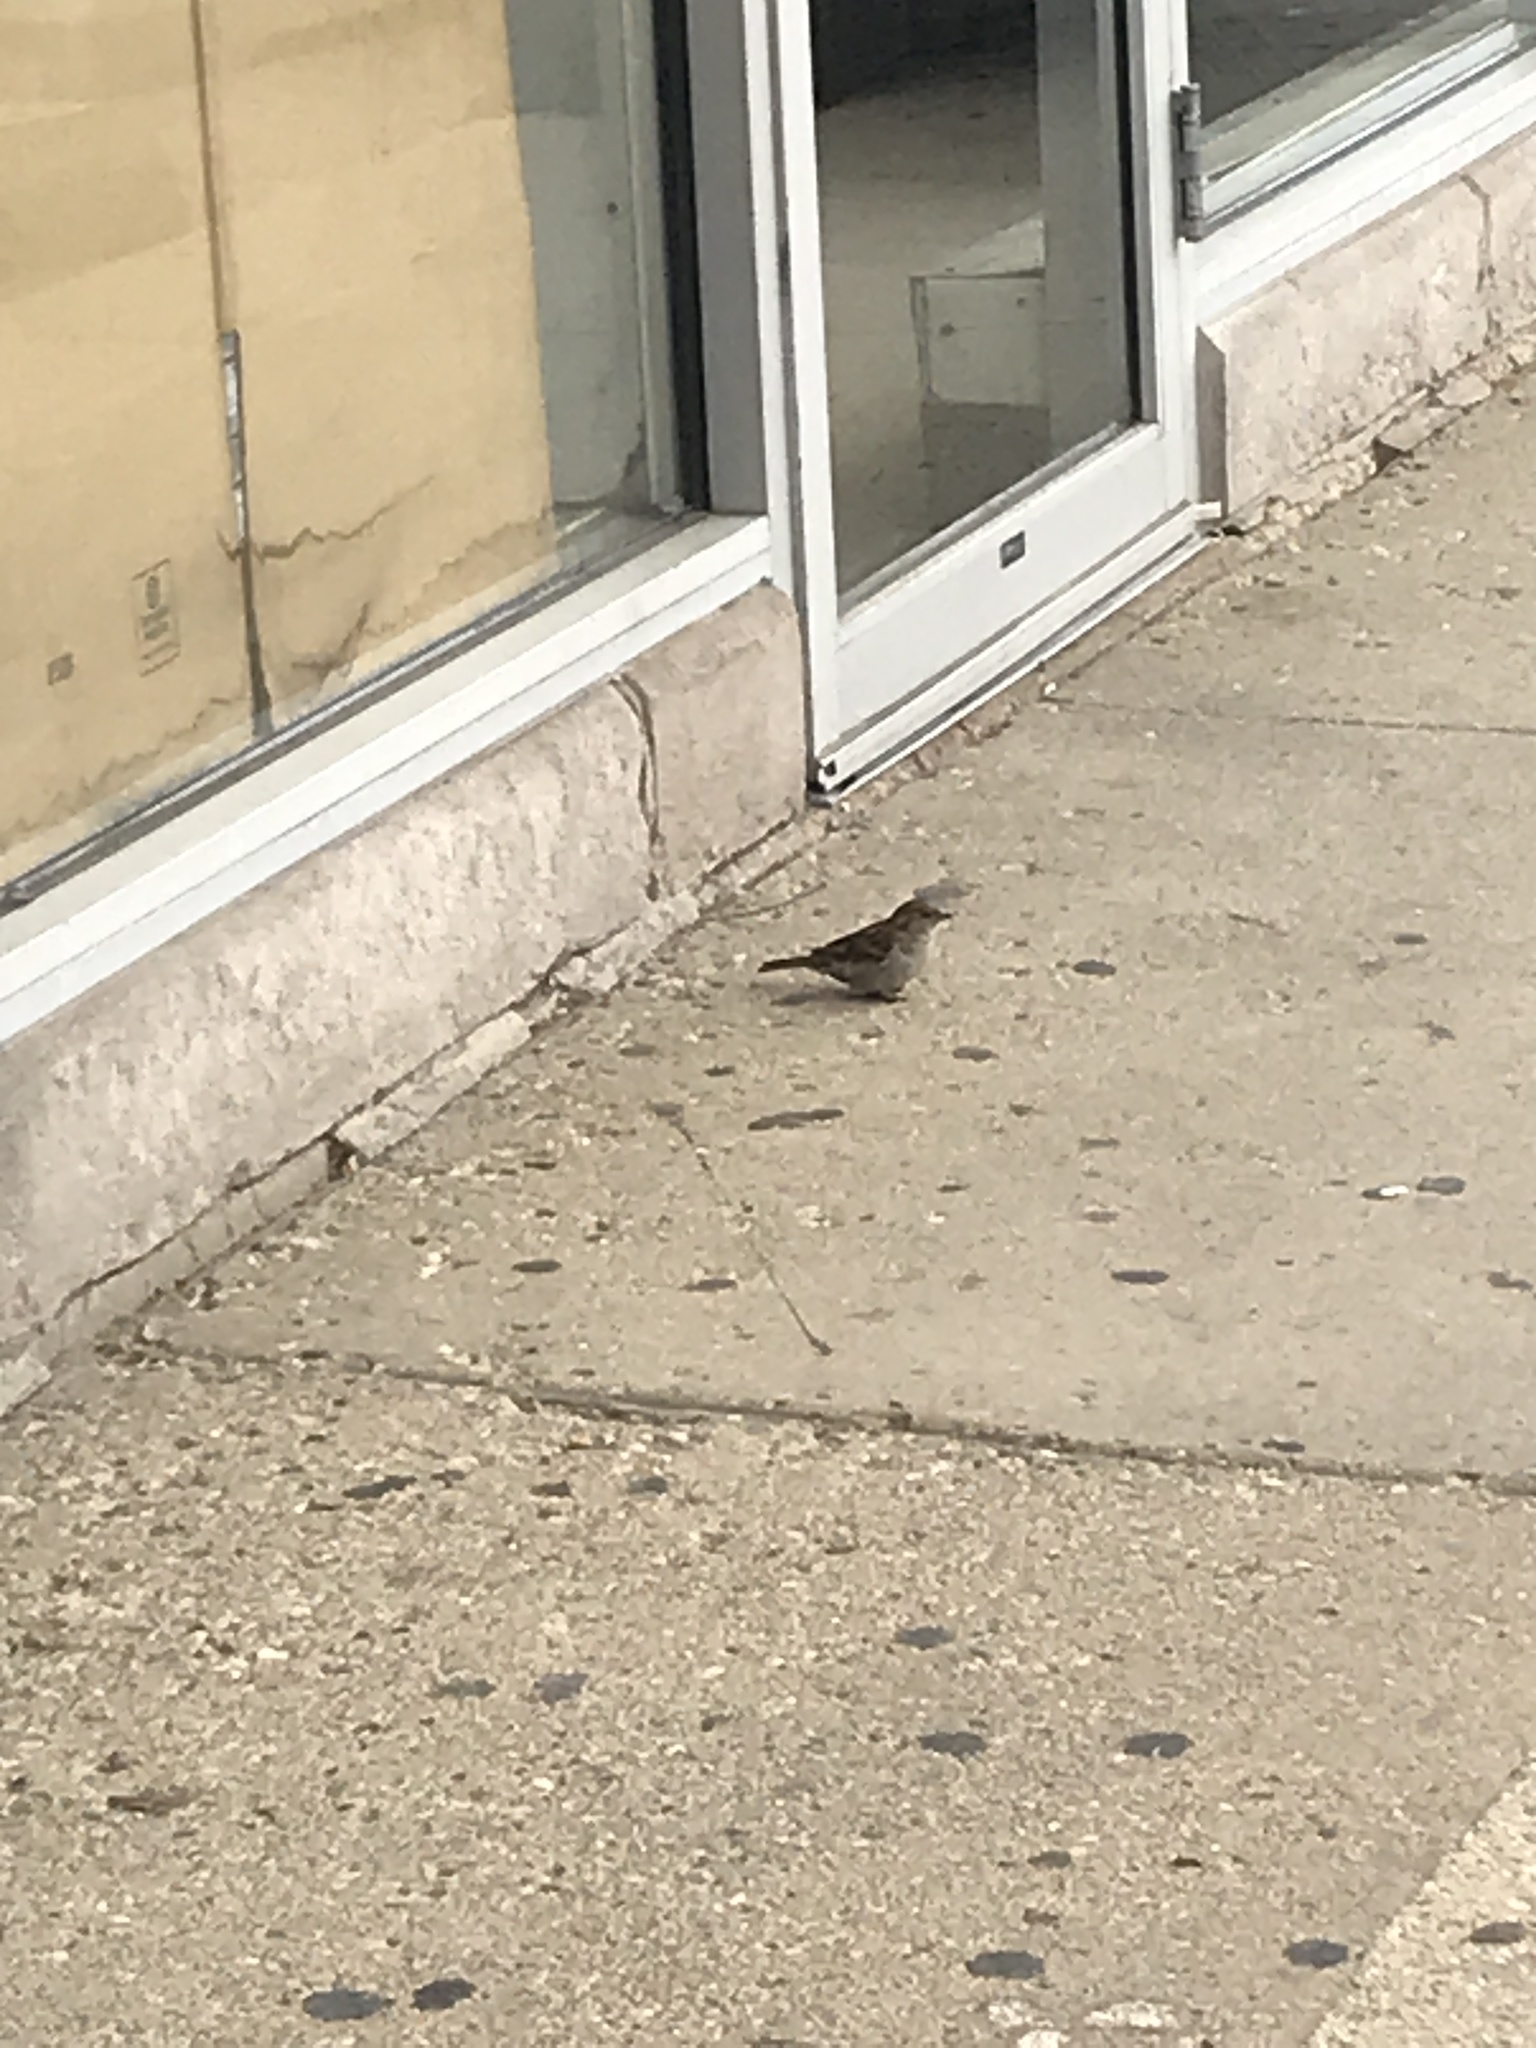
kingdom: Animalia
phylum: Chordata
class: Aves
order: Passeriformes
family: Passeridae
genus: Passer
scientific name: Passer domesticus
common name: House sparrow
